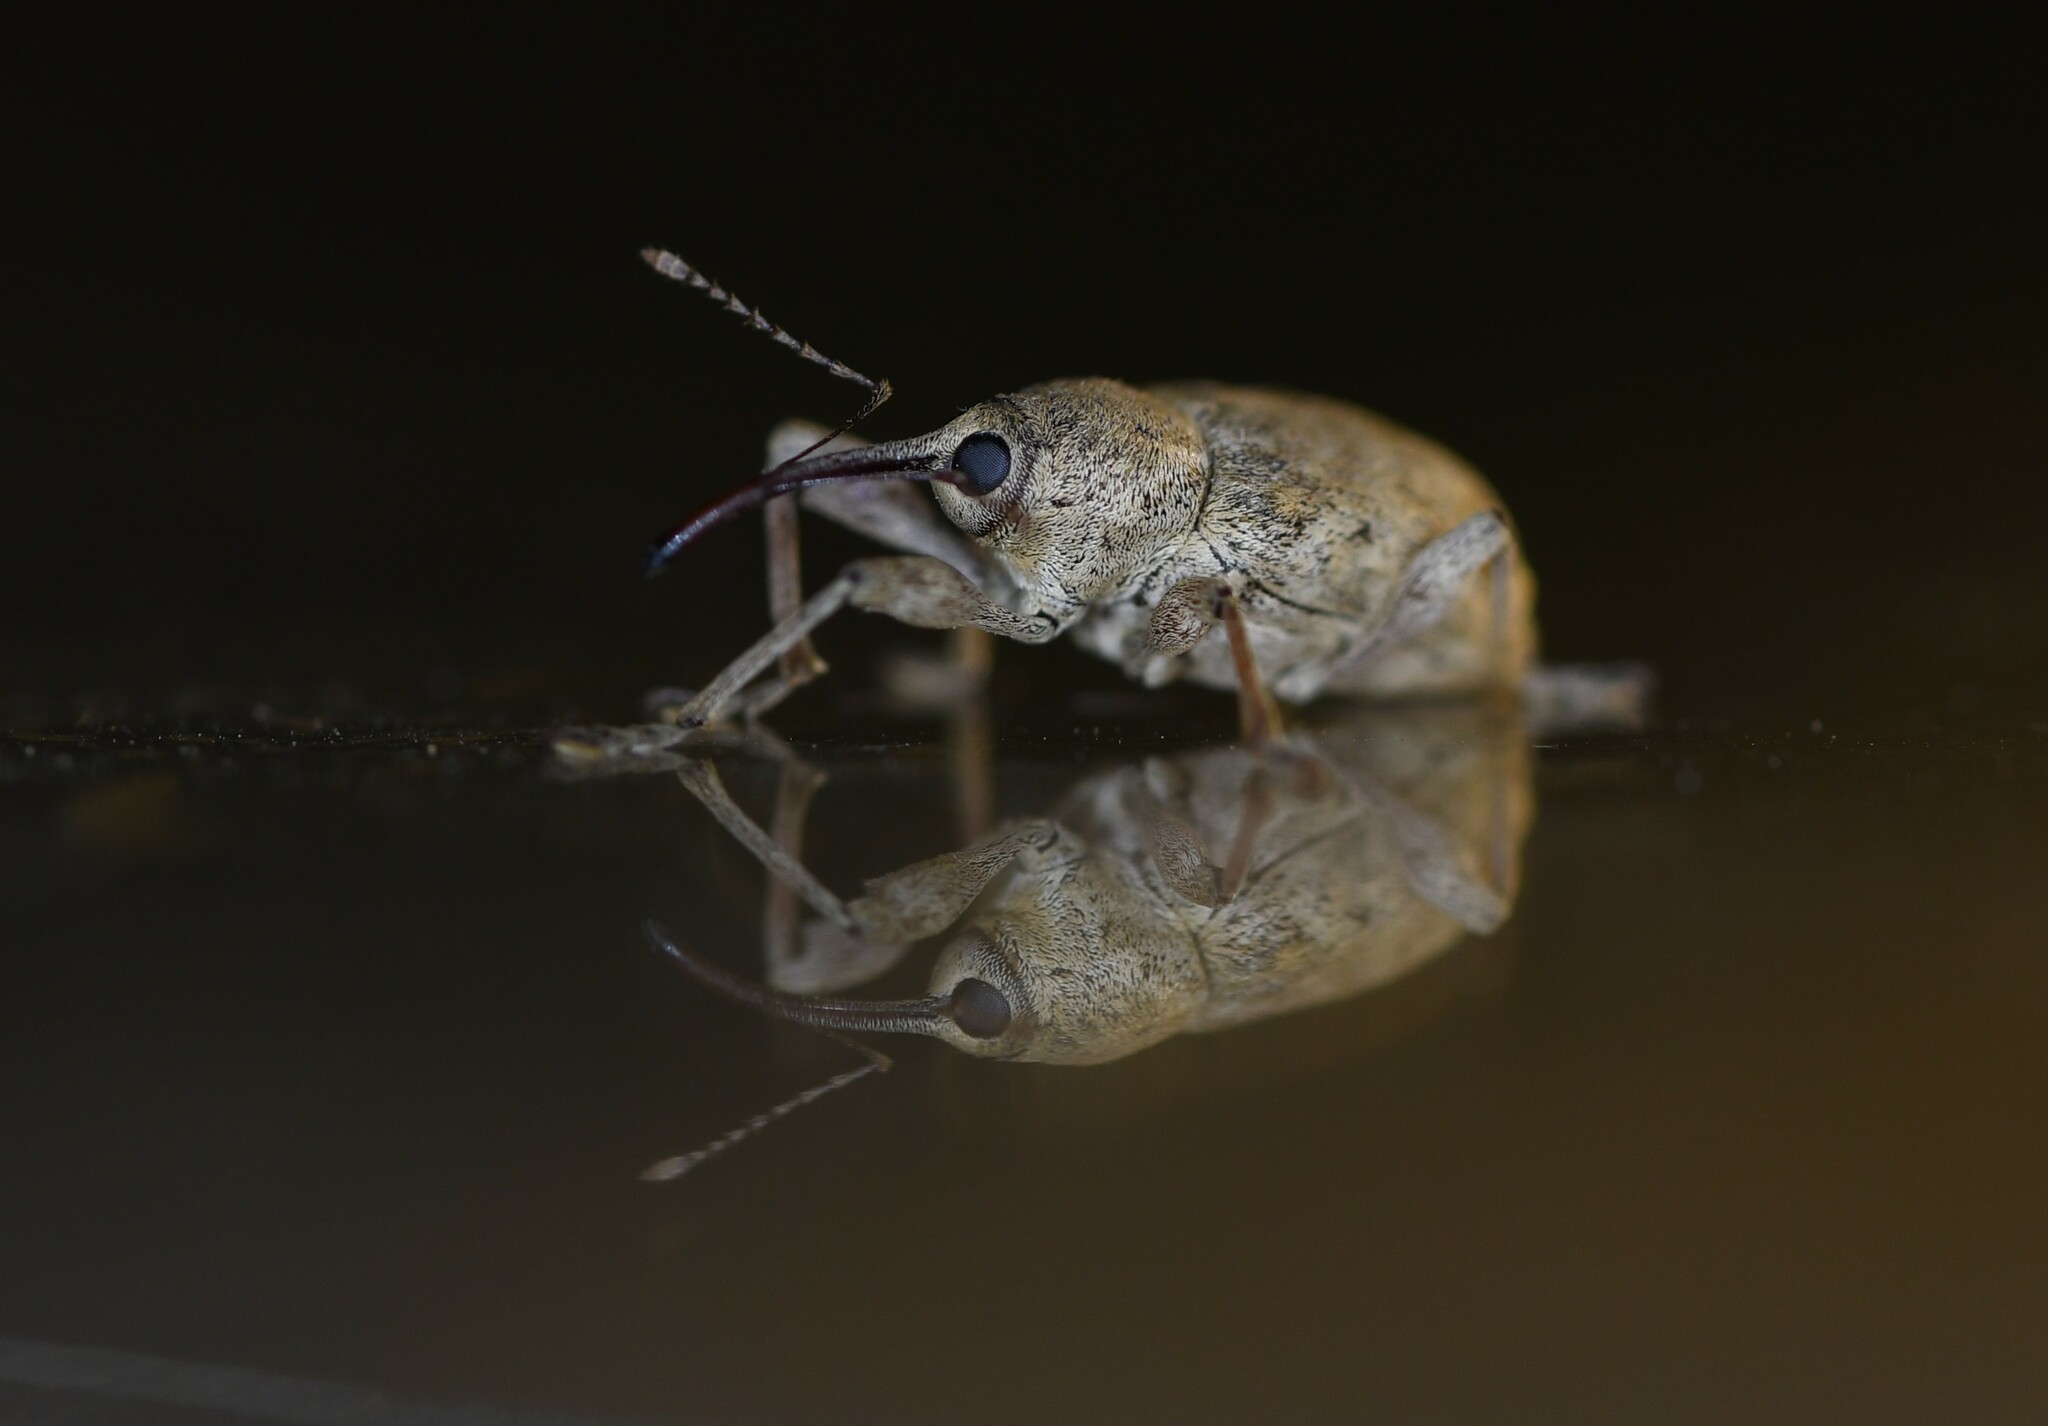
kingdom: Animalia
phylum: Arthropoda
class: Insecta
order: Coleoptera
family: Curculionidae
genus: Curculio
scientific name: Curculio elephas
